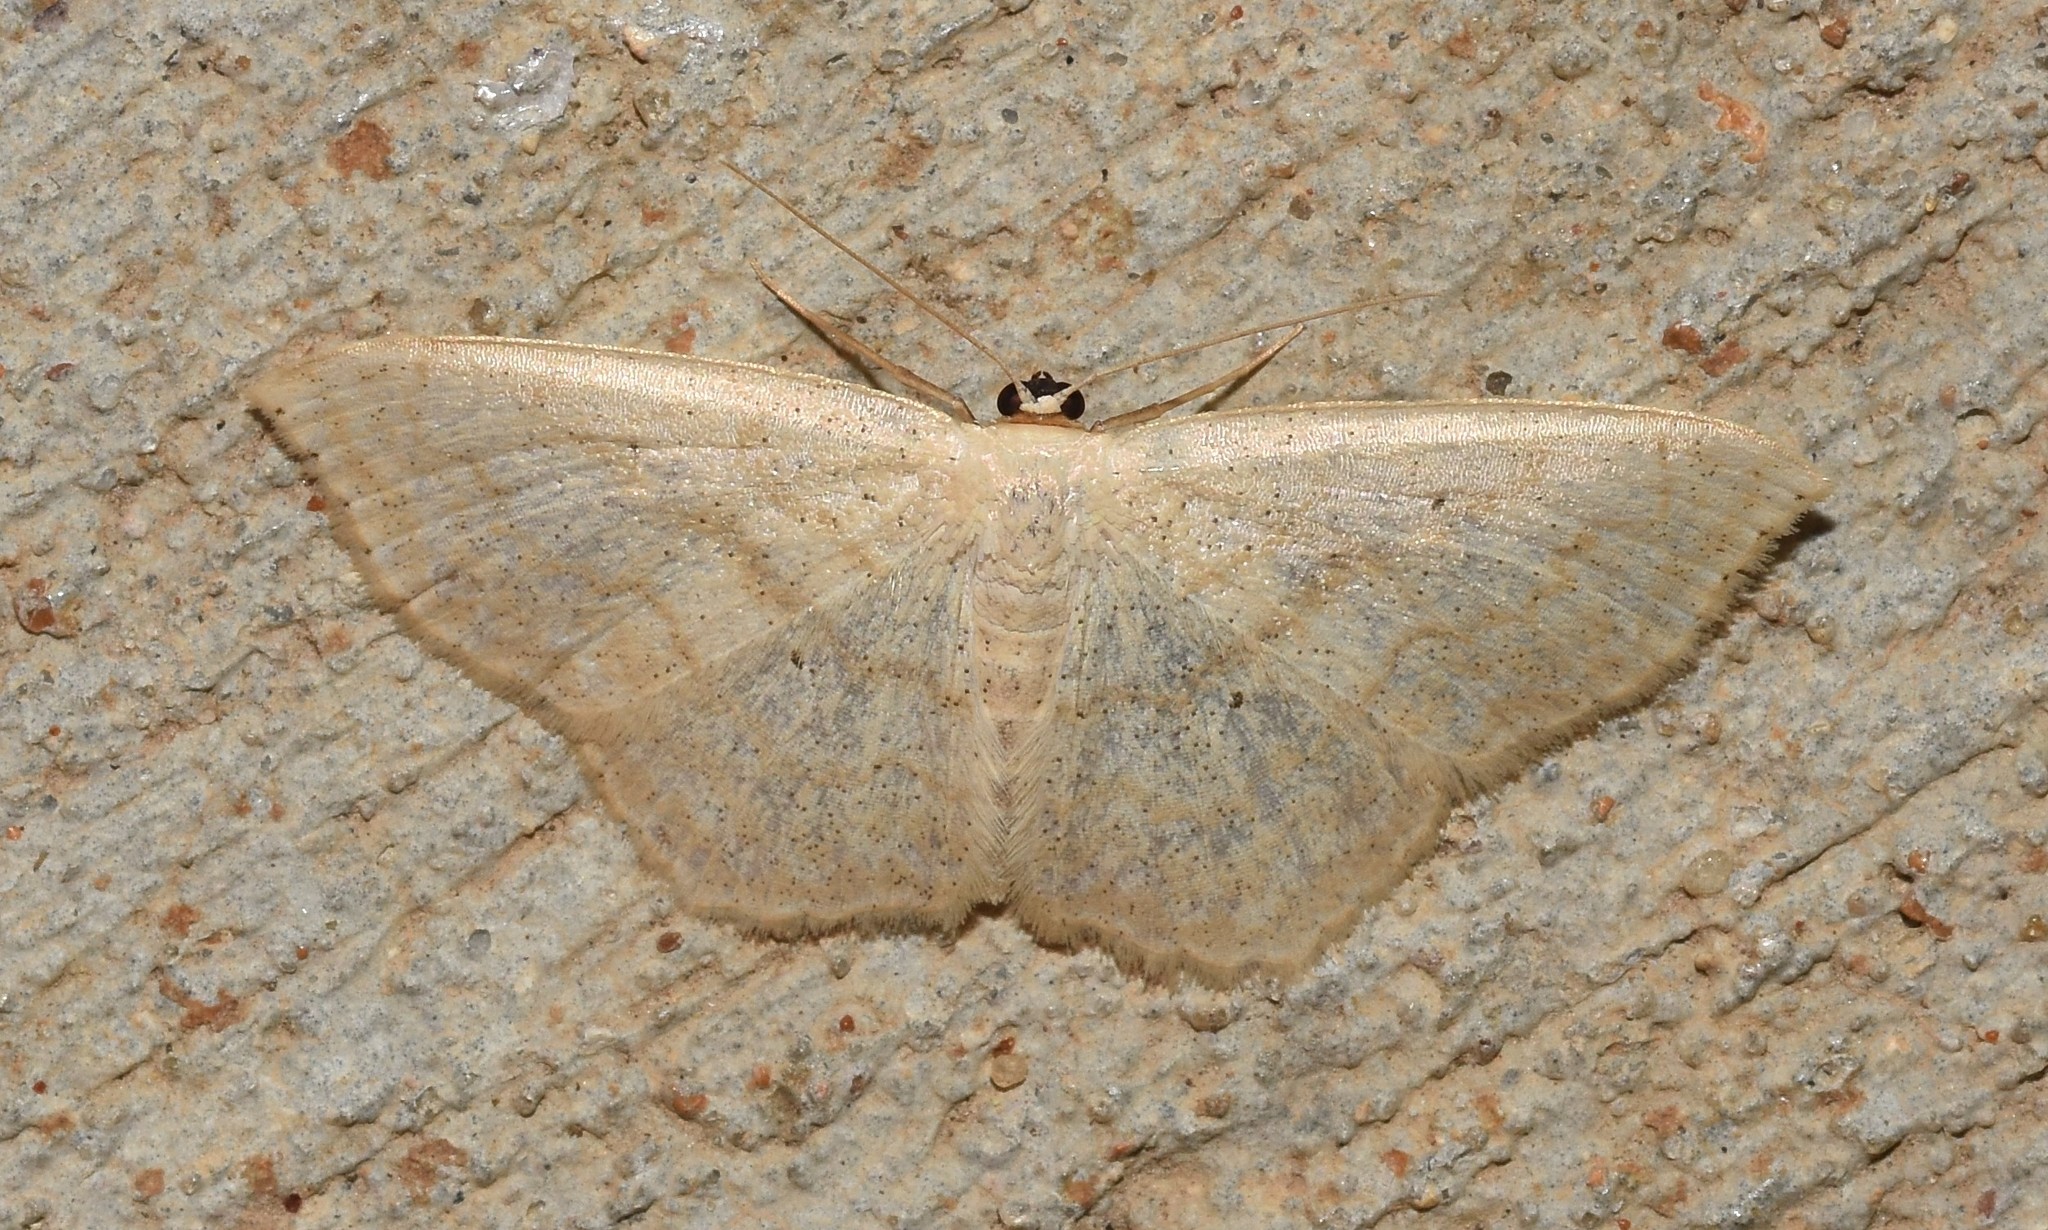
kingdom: Animalia
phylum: Arthropoda
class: Insecta
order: Lepidoptera
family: Geometridae
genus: Scopula
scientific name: Scopula limboundata
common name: Large lace border
